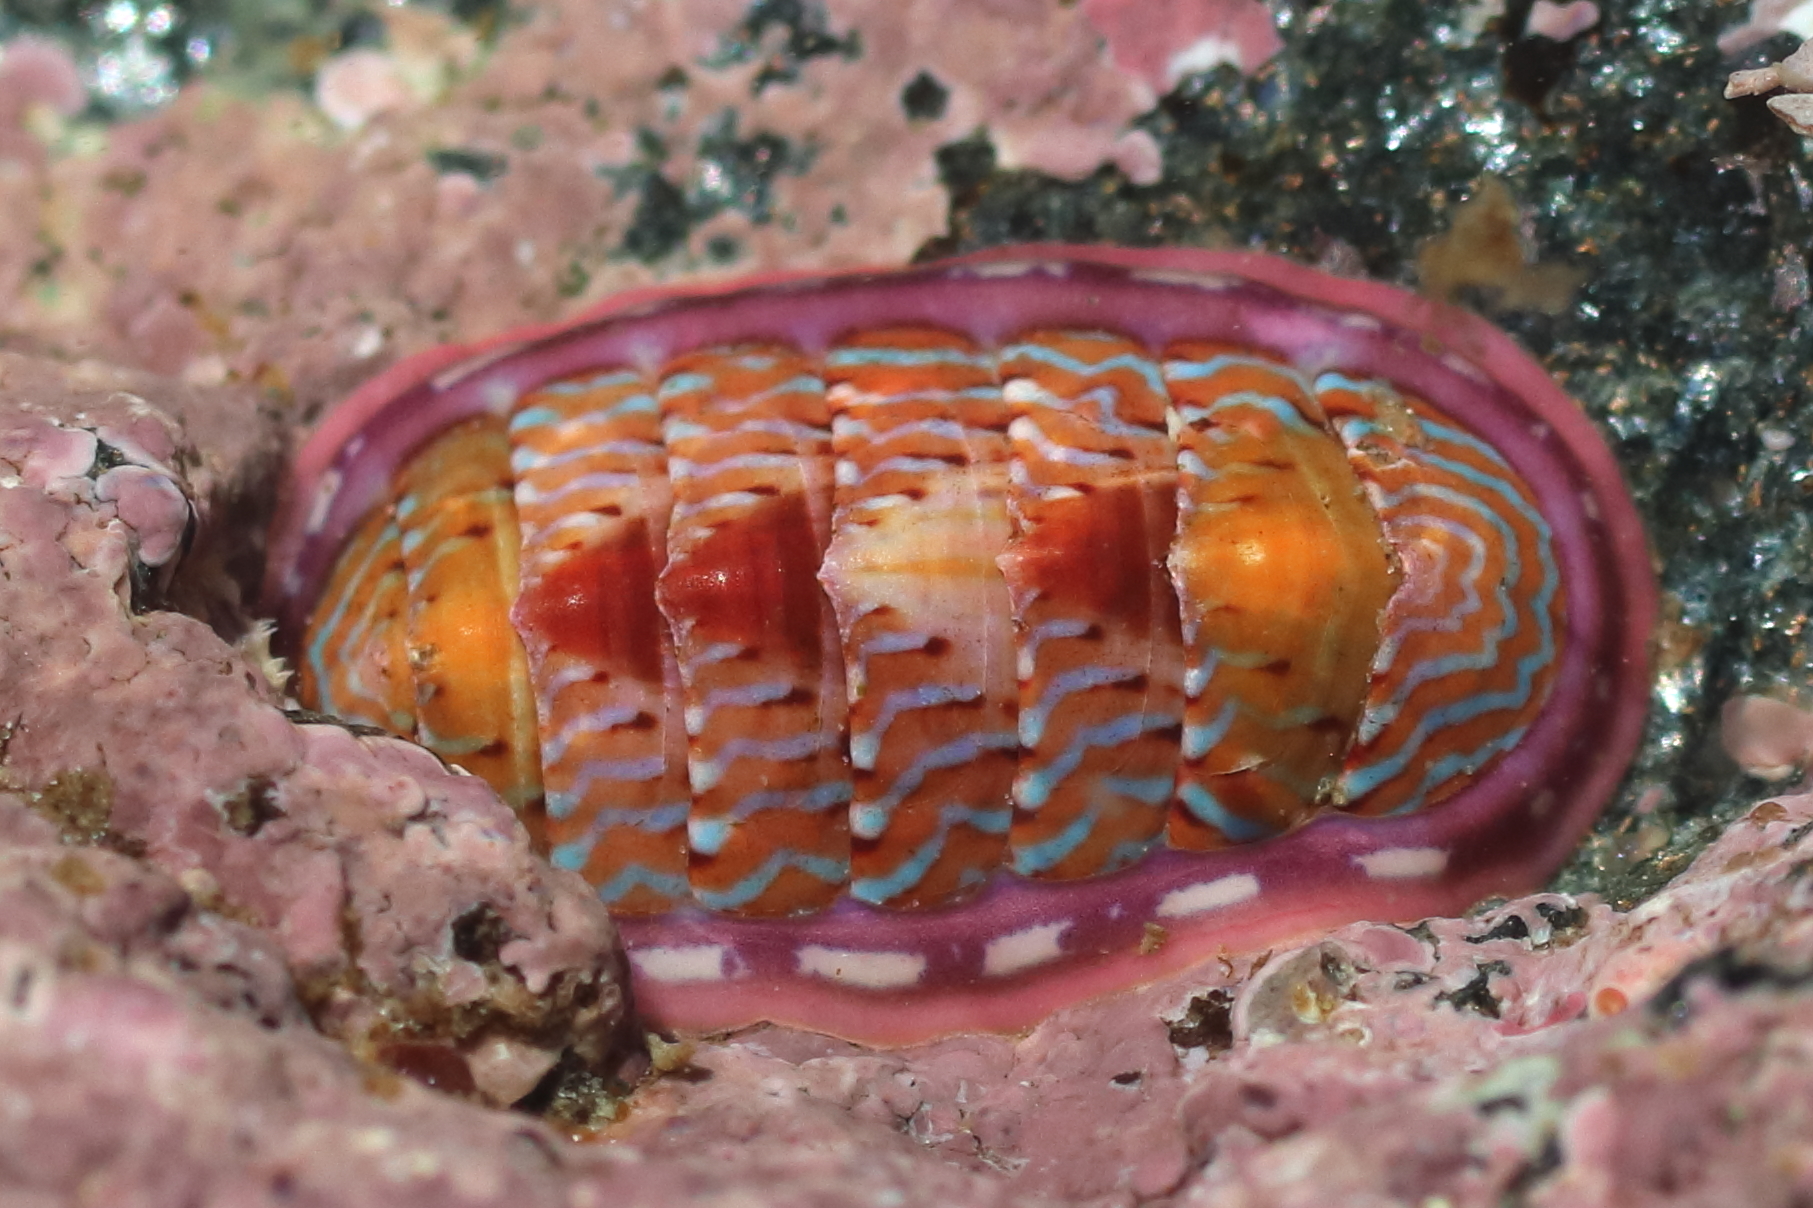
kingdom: Animalia
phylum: Mollusca
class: Polyplacophora
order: Chitonida
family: Tonicellidae
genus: Tonicella
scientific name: Tonicella undocaerulea
